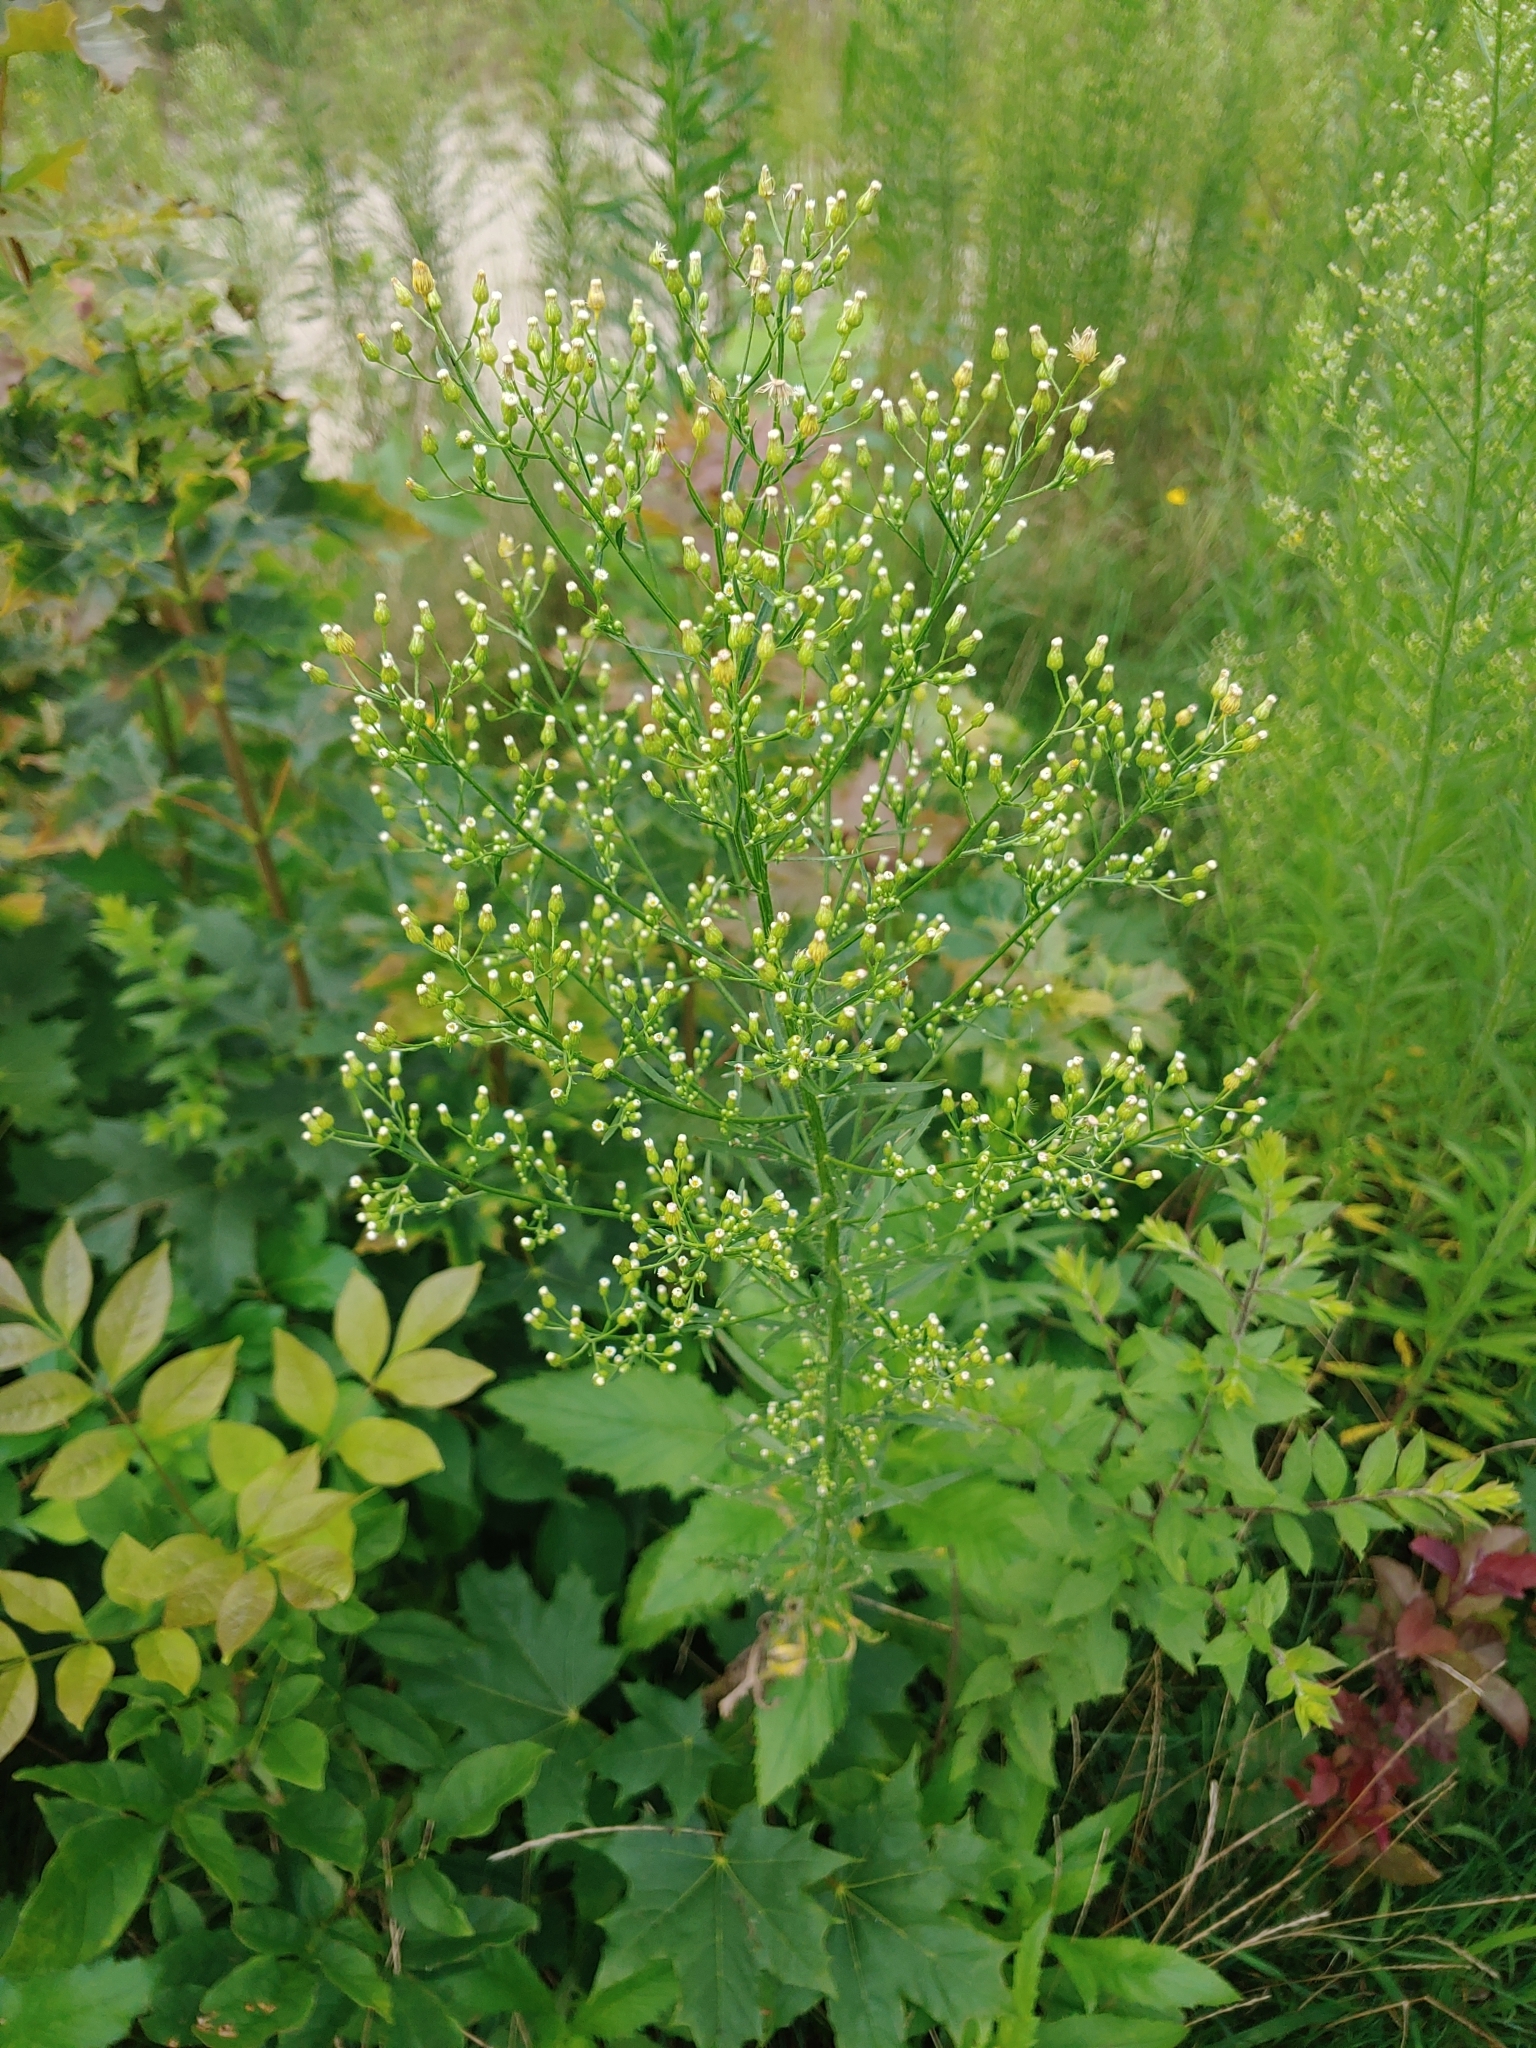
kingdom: Plantae
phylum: Tracheophyta
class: Magnoliopsida
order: Asterales
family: Asteraceae
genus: Erigeron
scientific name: Erigeron canadensis
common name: Canadian fleabane
